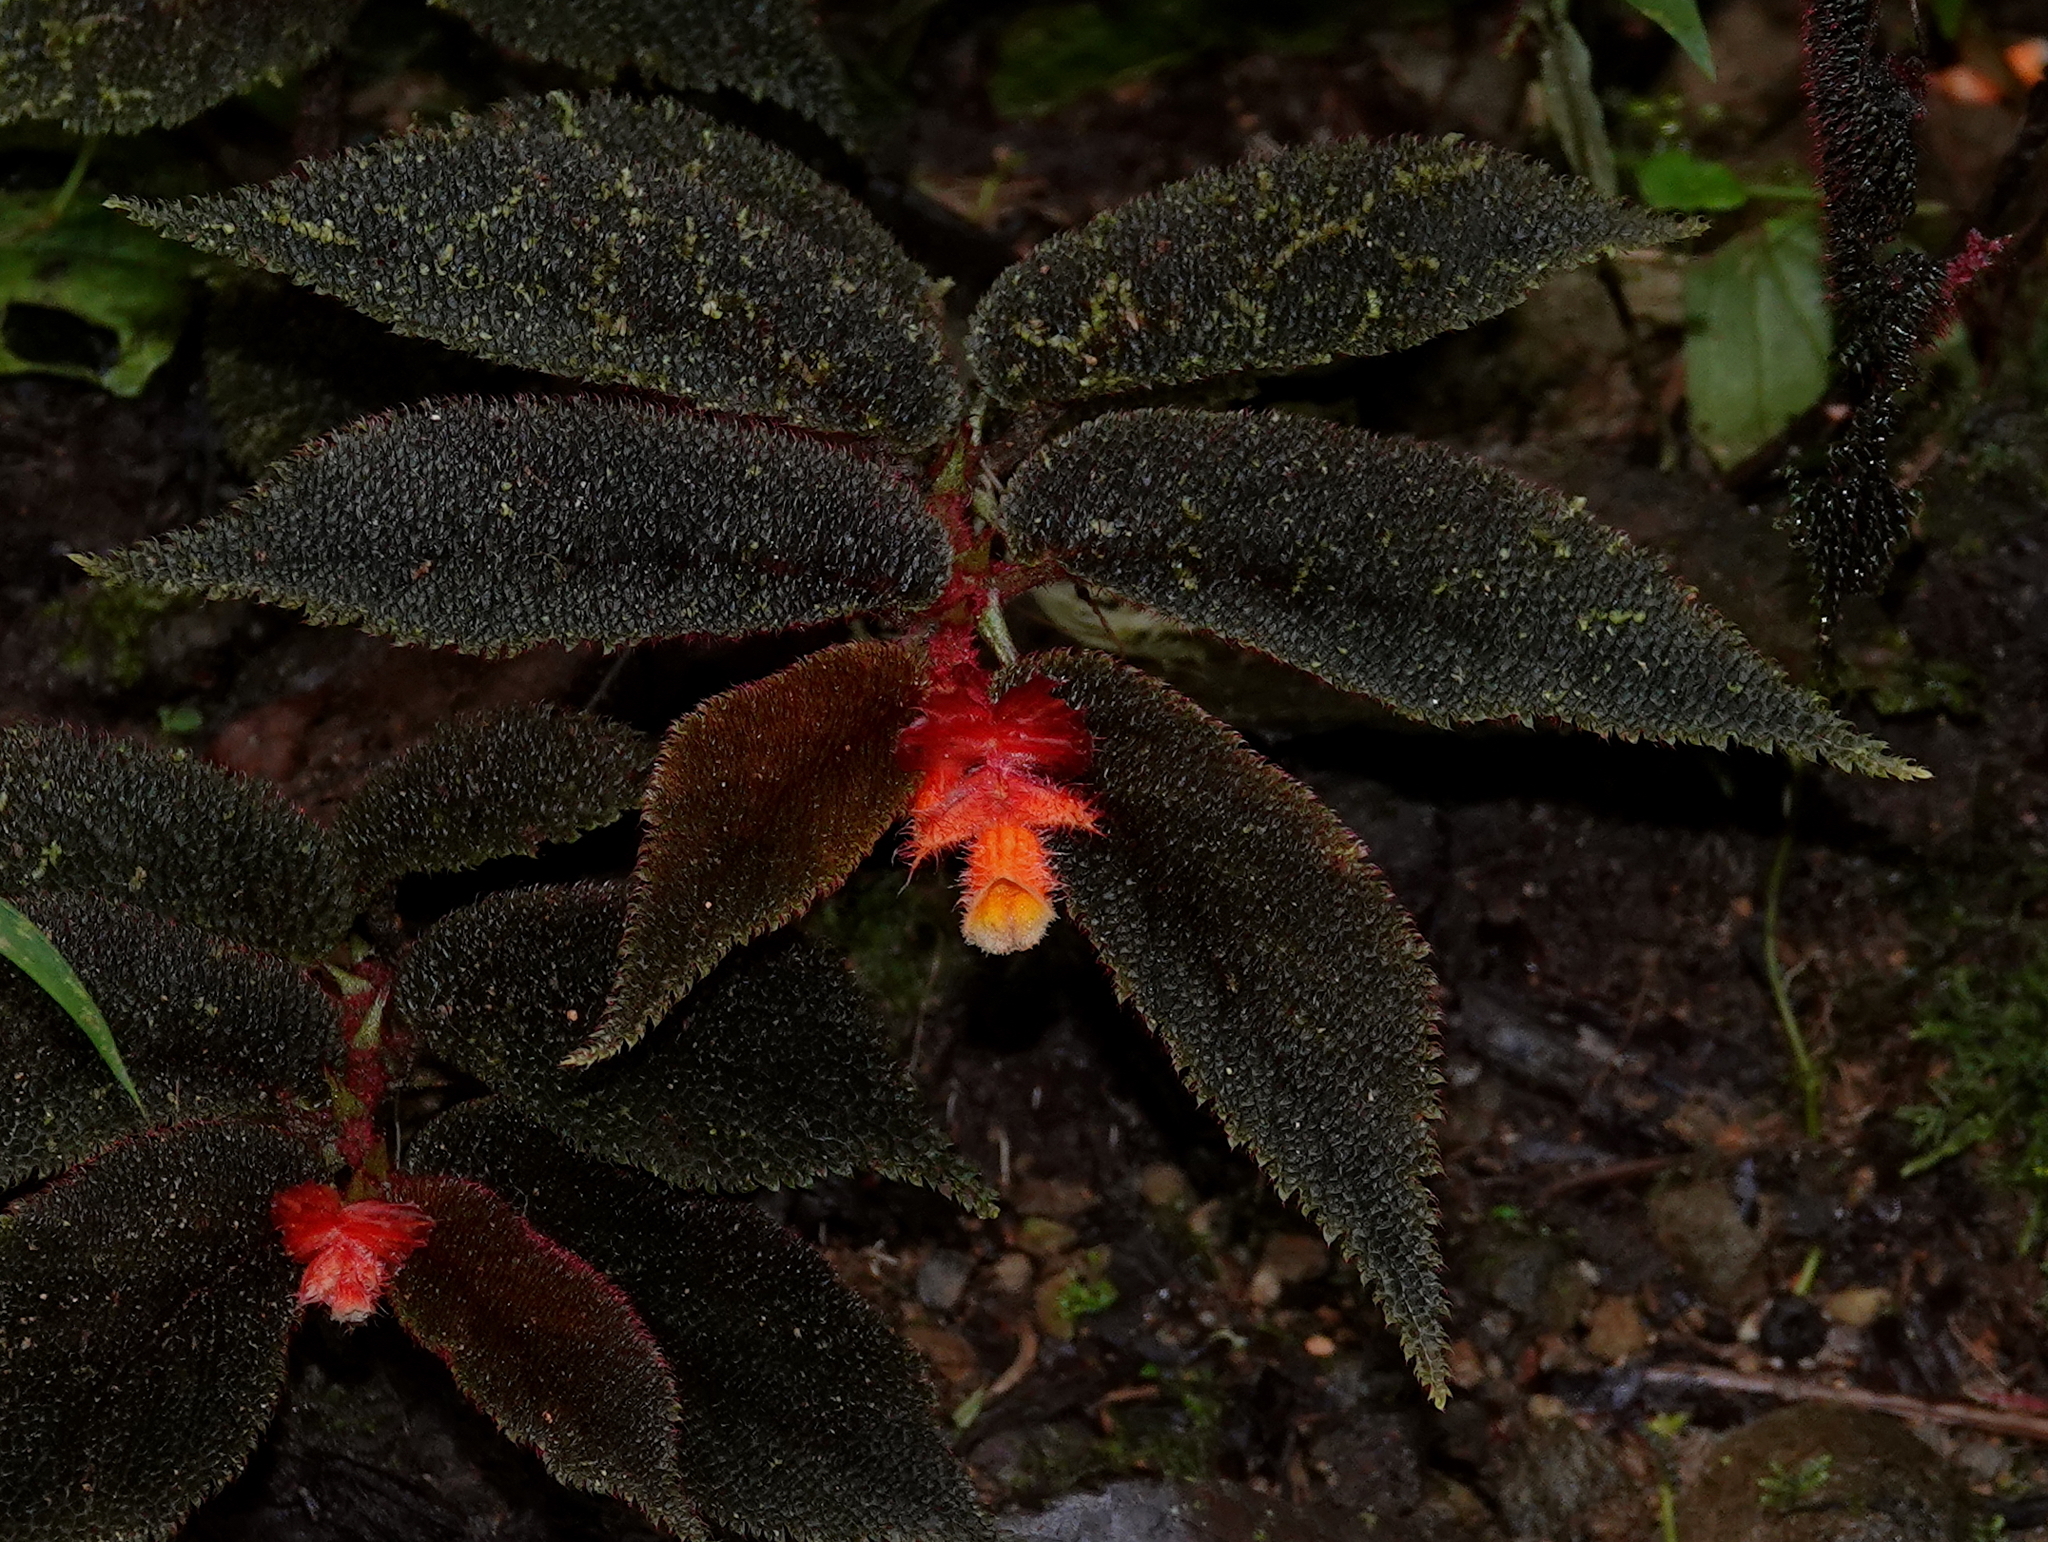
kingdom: Plantae
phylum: Tracheophyta
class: Magnoliopsida
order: Cucurbitales
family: Begoniaceae
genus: Begonia
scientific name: Begonia lehmannii
